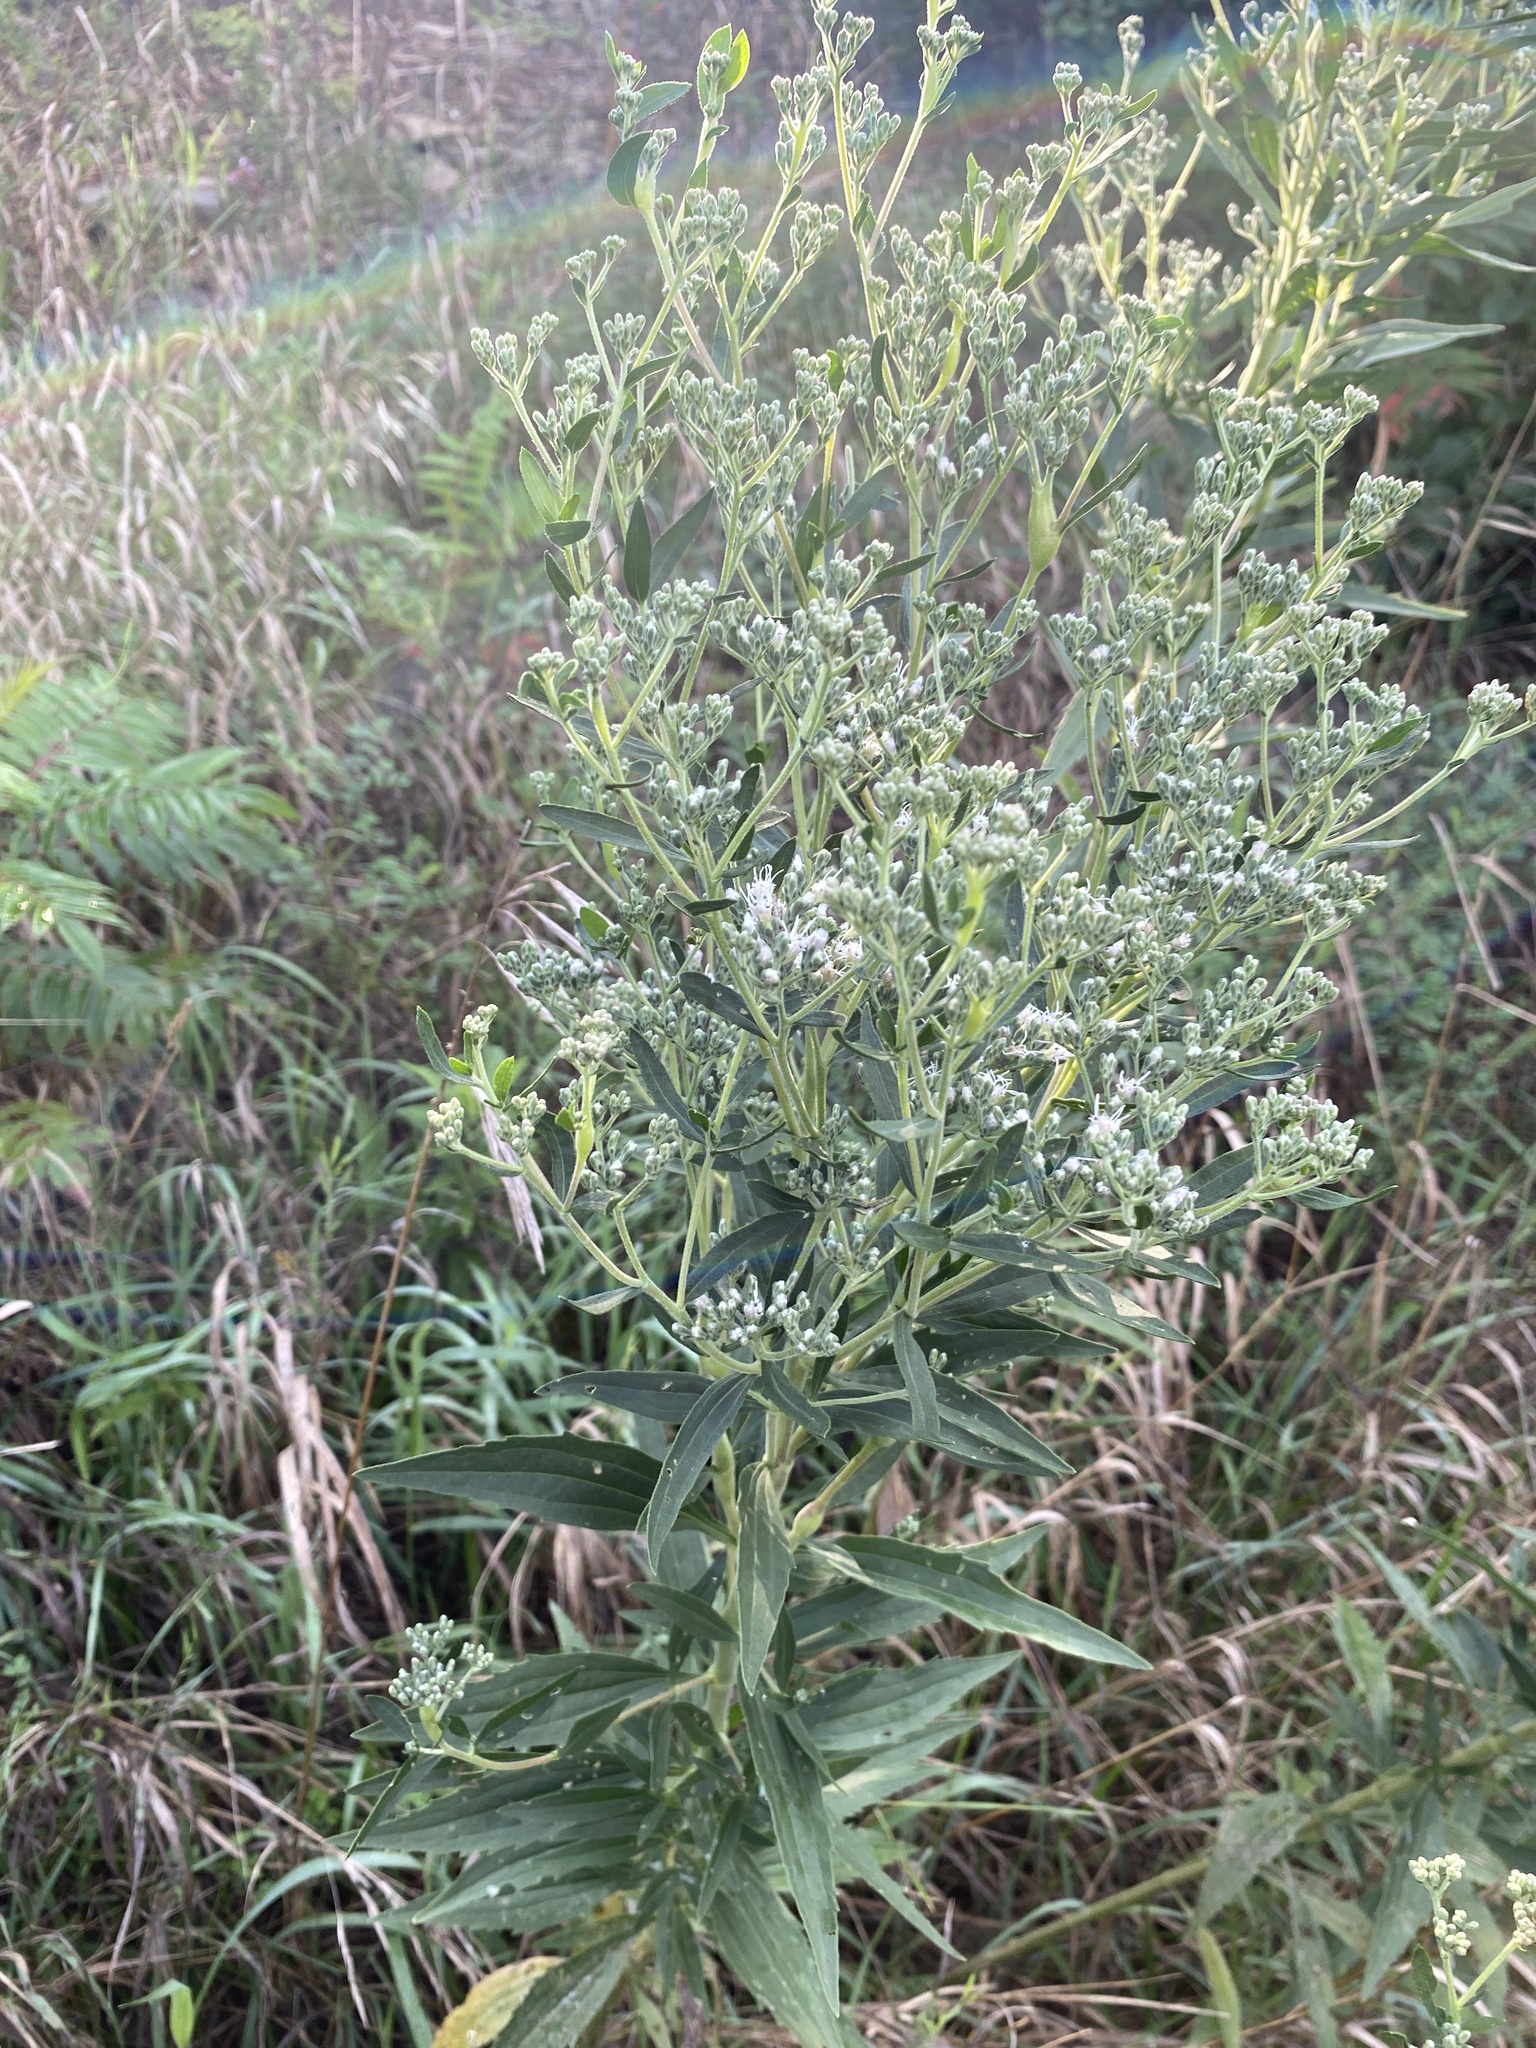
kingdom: Plantae
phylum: Tracheophyta
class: Magnoliopsida
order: Asterales
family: Asteraceae
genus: Eupatorium
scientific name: Eupatorium altissimum
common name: Tall thoroughwort
